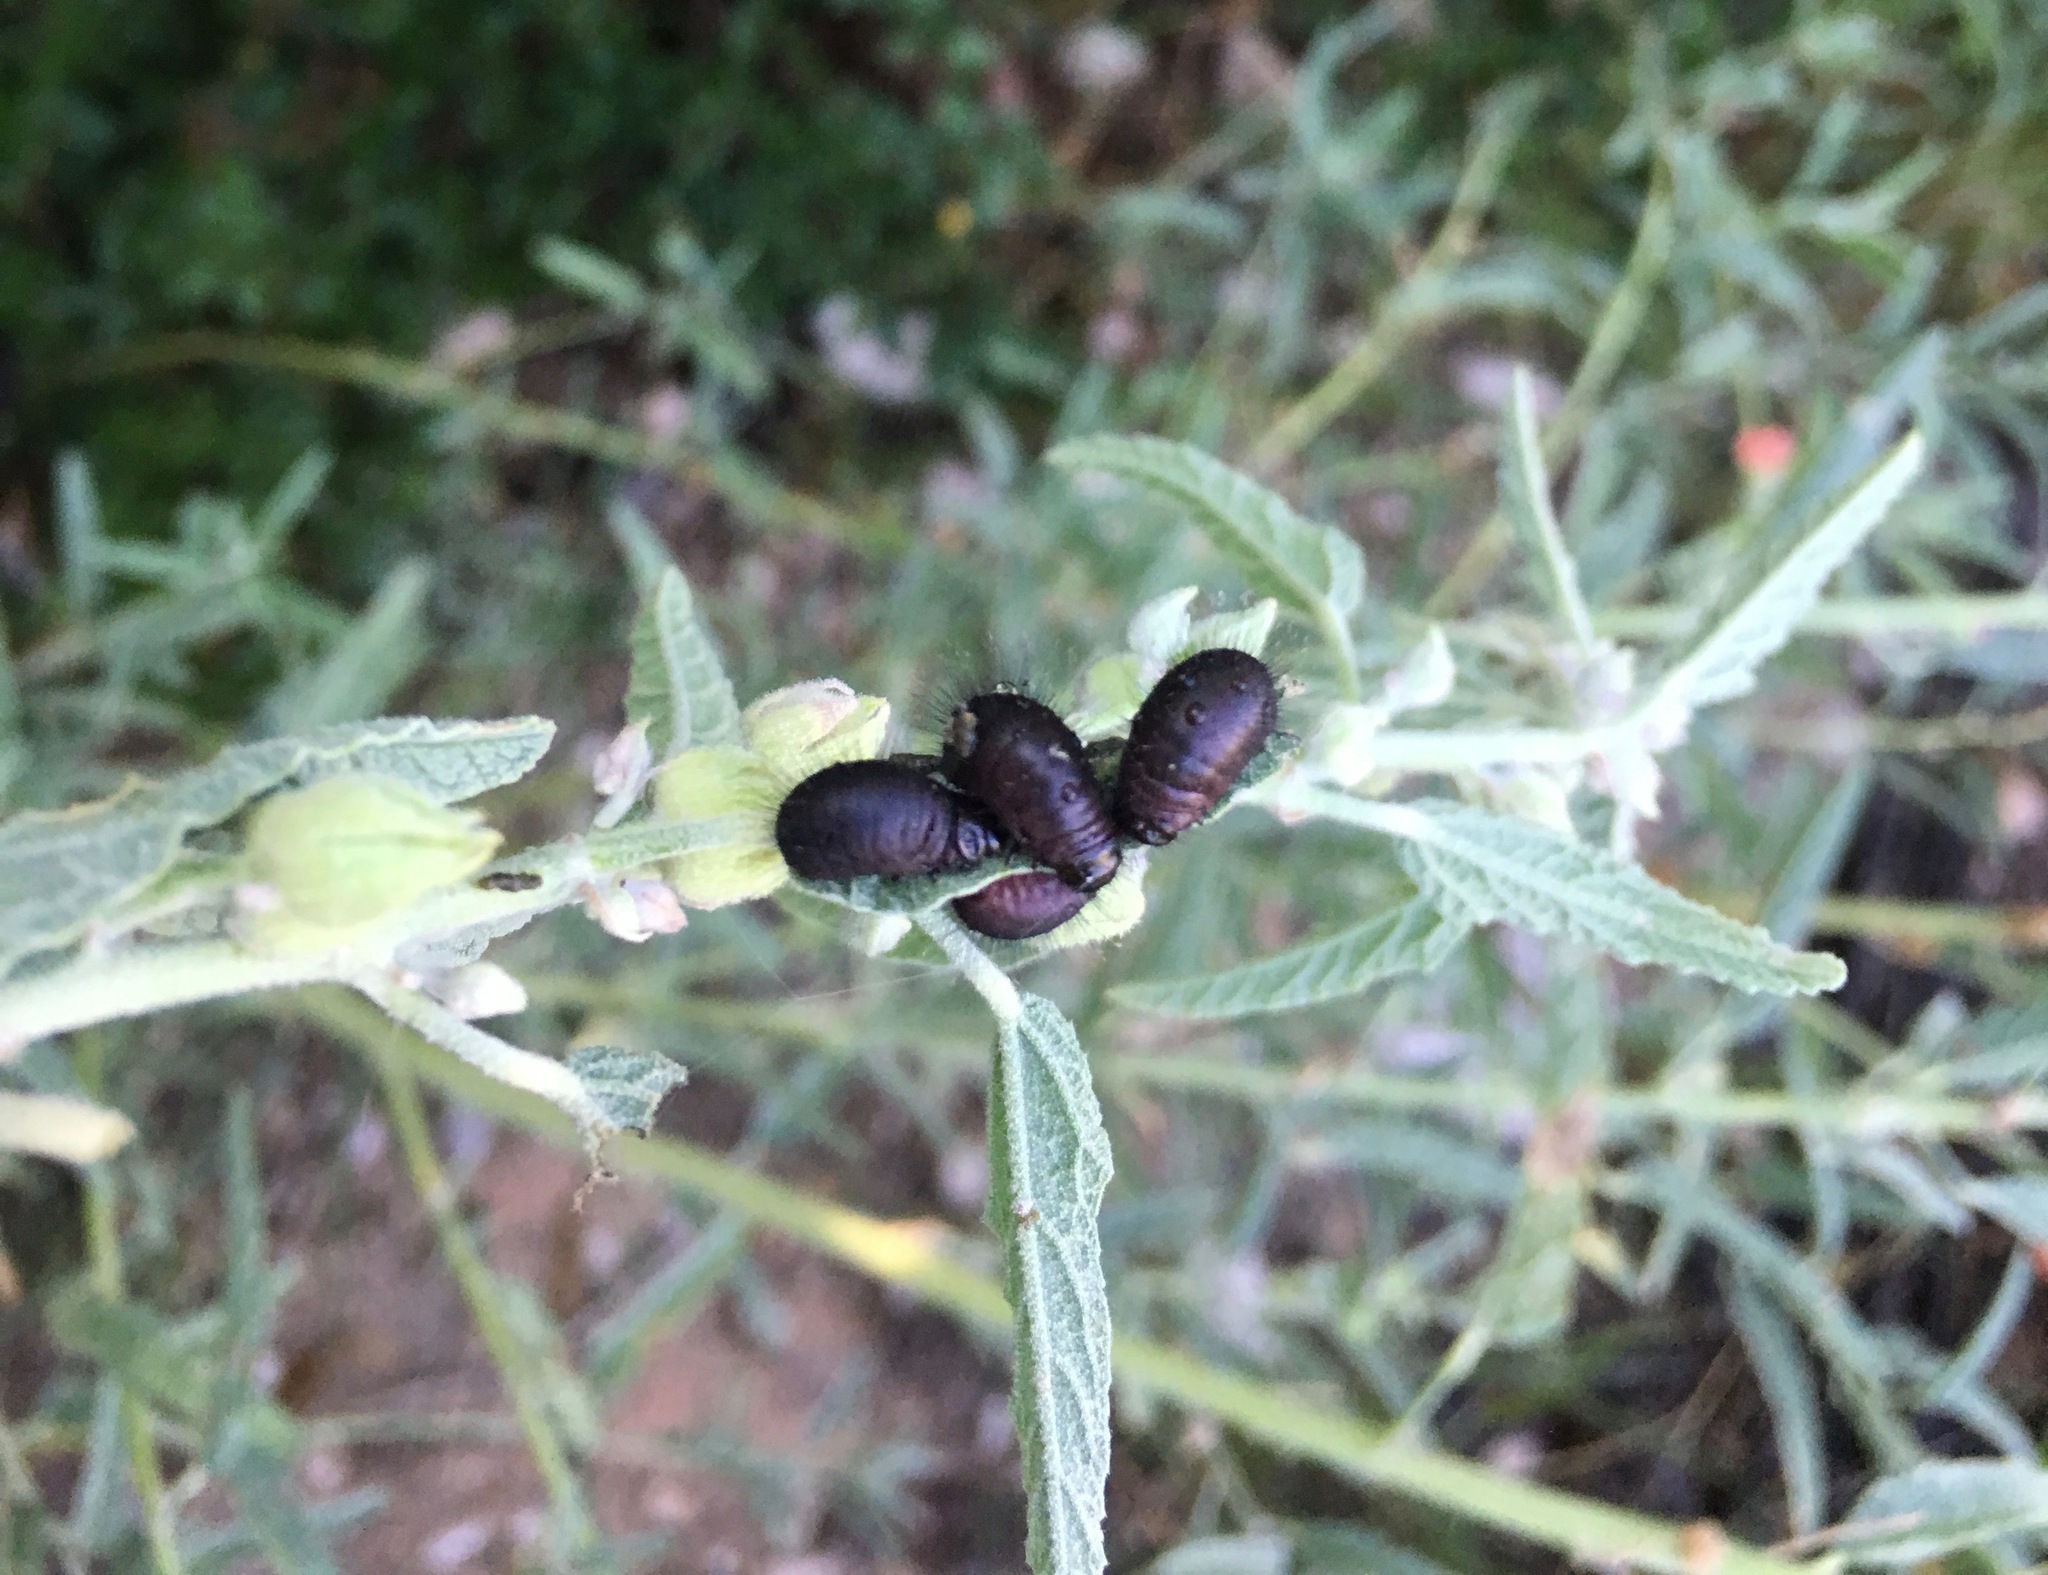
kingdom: Animalia
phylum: Arthropoda
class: Insecta
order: Coleoptera
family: Chrysomelidae
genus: Calligrapha
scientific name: Calligrapha serpentina
